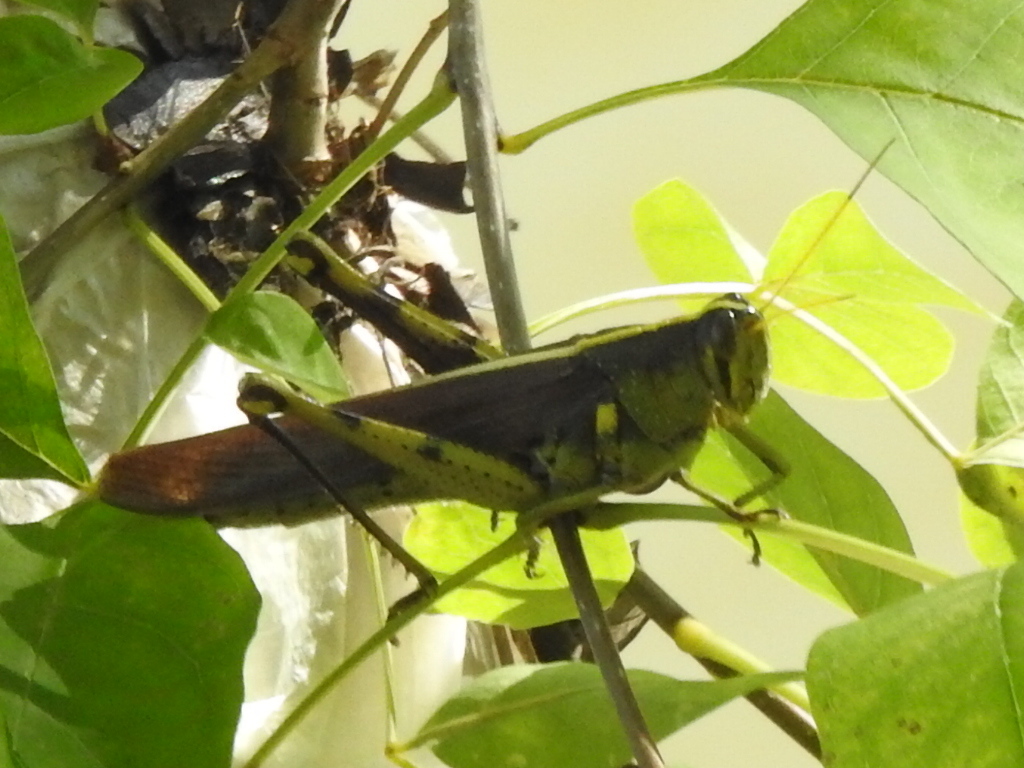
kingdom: Animalia
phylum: Arthropoda
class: Insecta
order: Orthoptera
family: Acrididae
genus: Schistocerca
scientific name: Schistocerca obscura
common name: Obscure bird grasshopper
